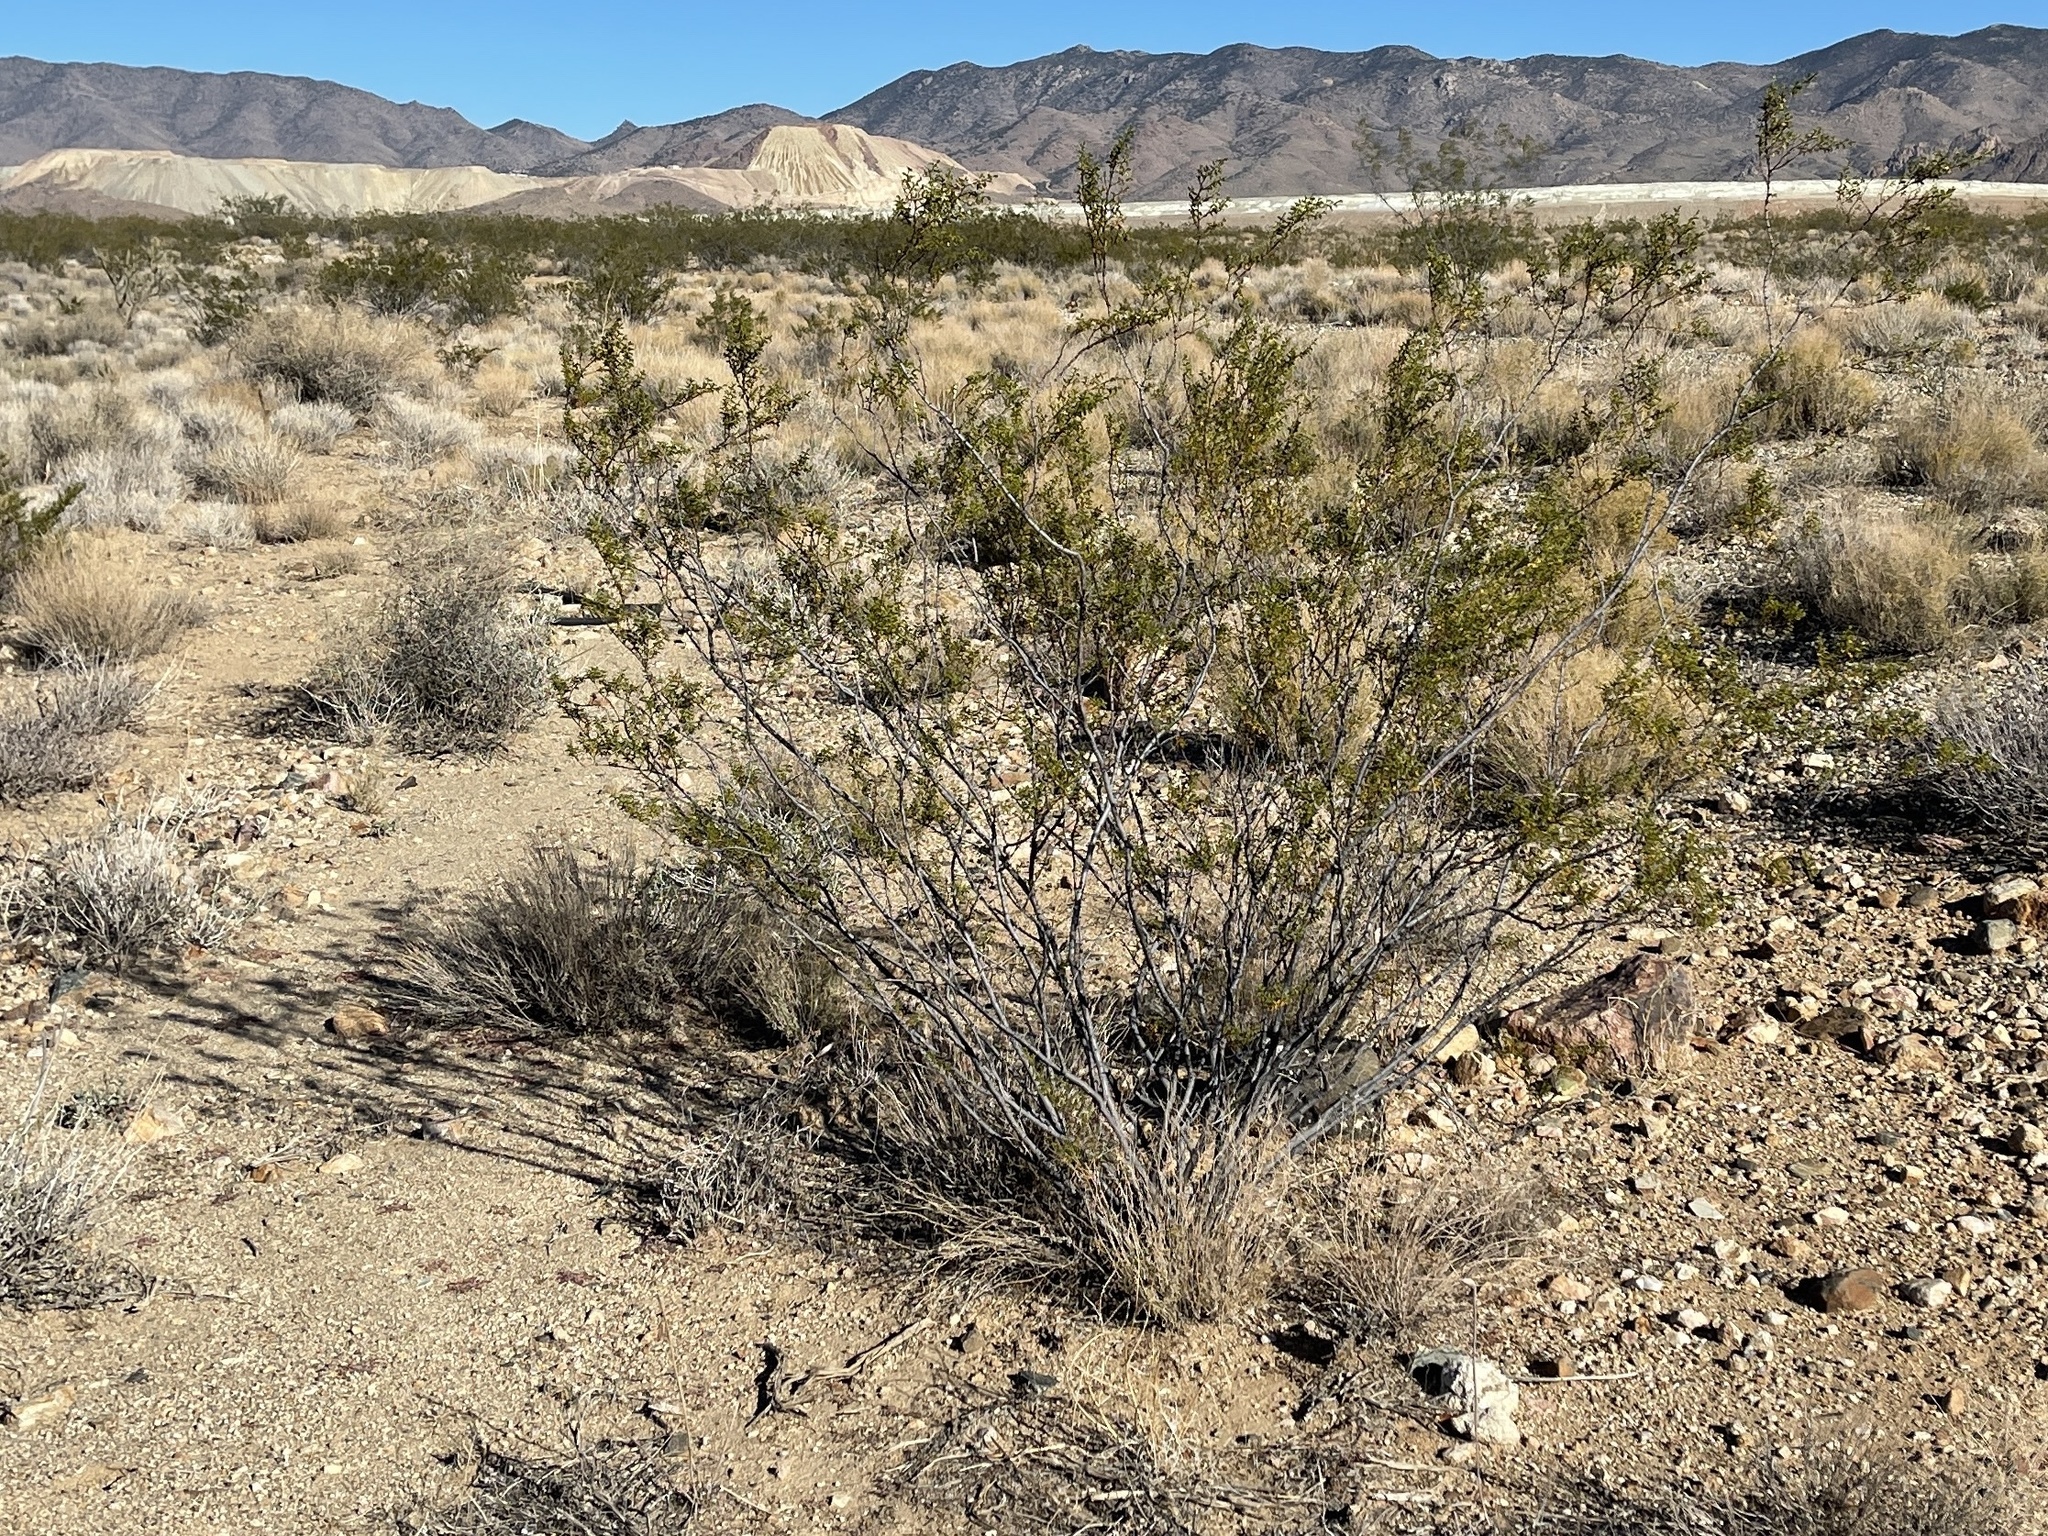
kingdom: Plantae
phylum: Tracheophyta
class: Magnoliopsida
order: Zygophyllales
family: Zygophyllaceae
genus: Larrea
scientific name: Larrea tridentata
